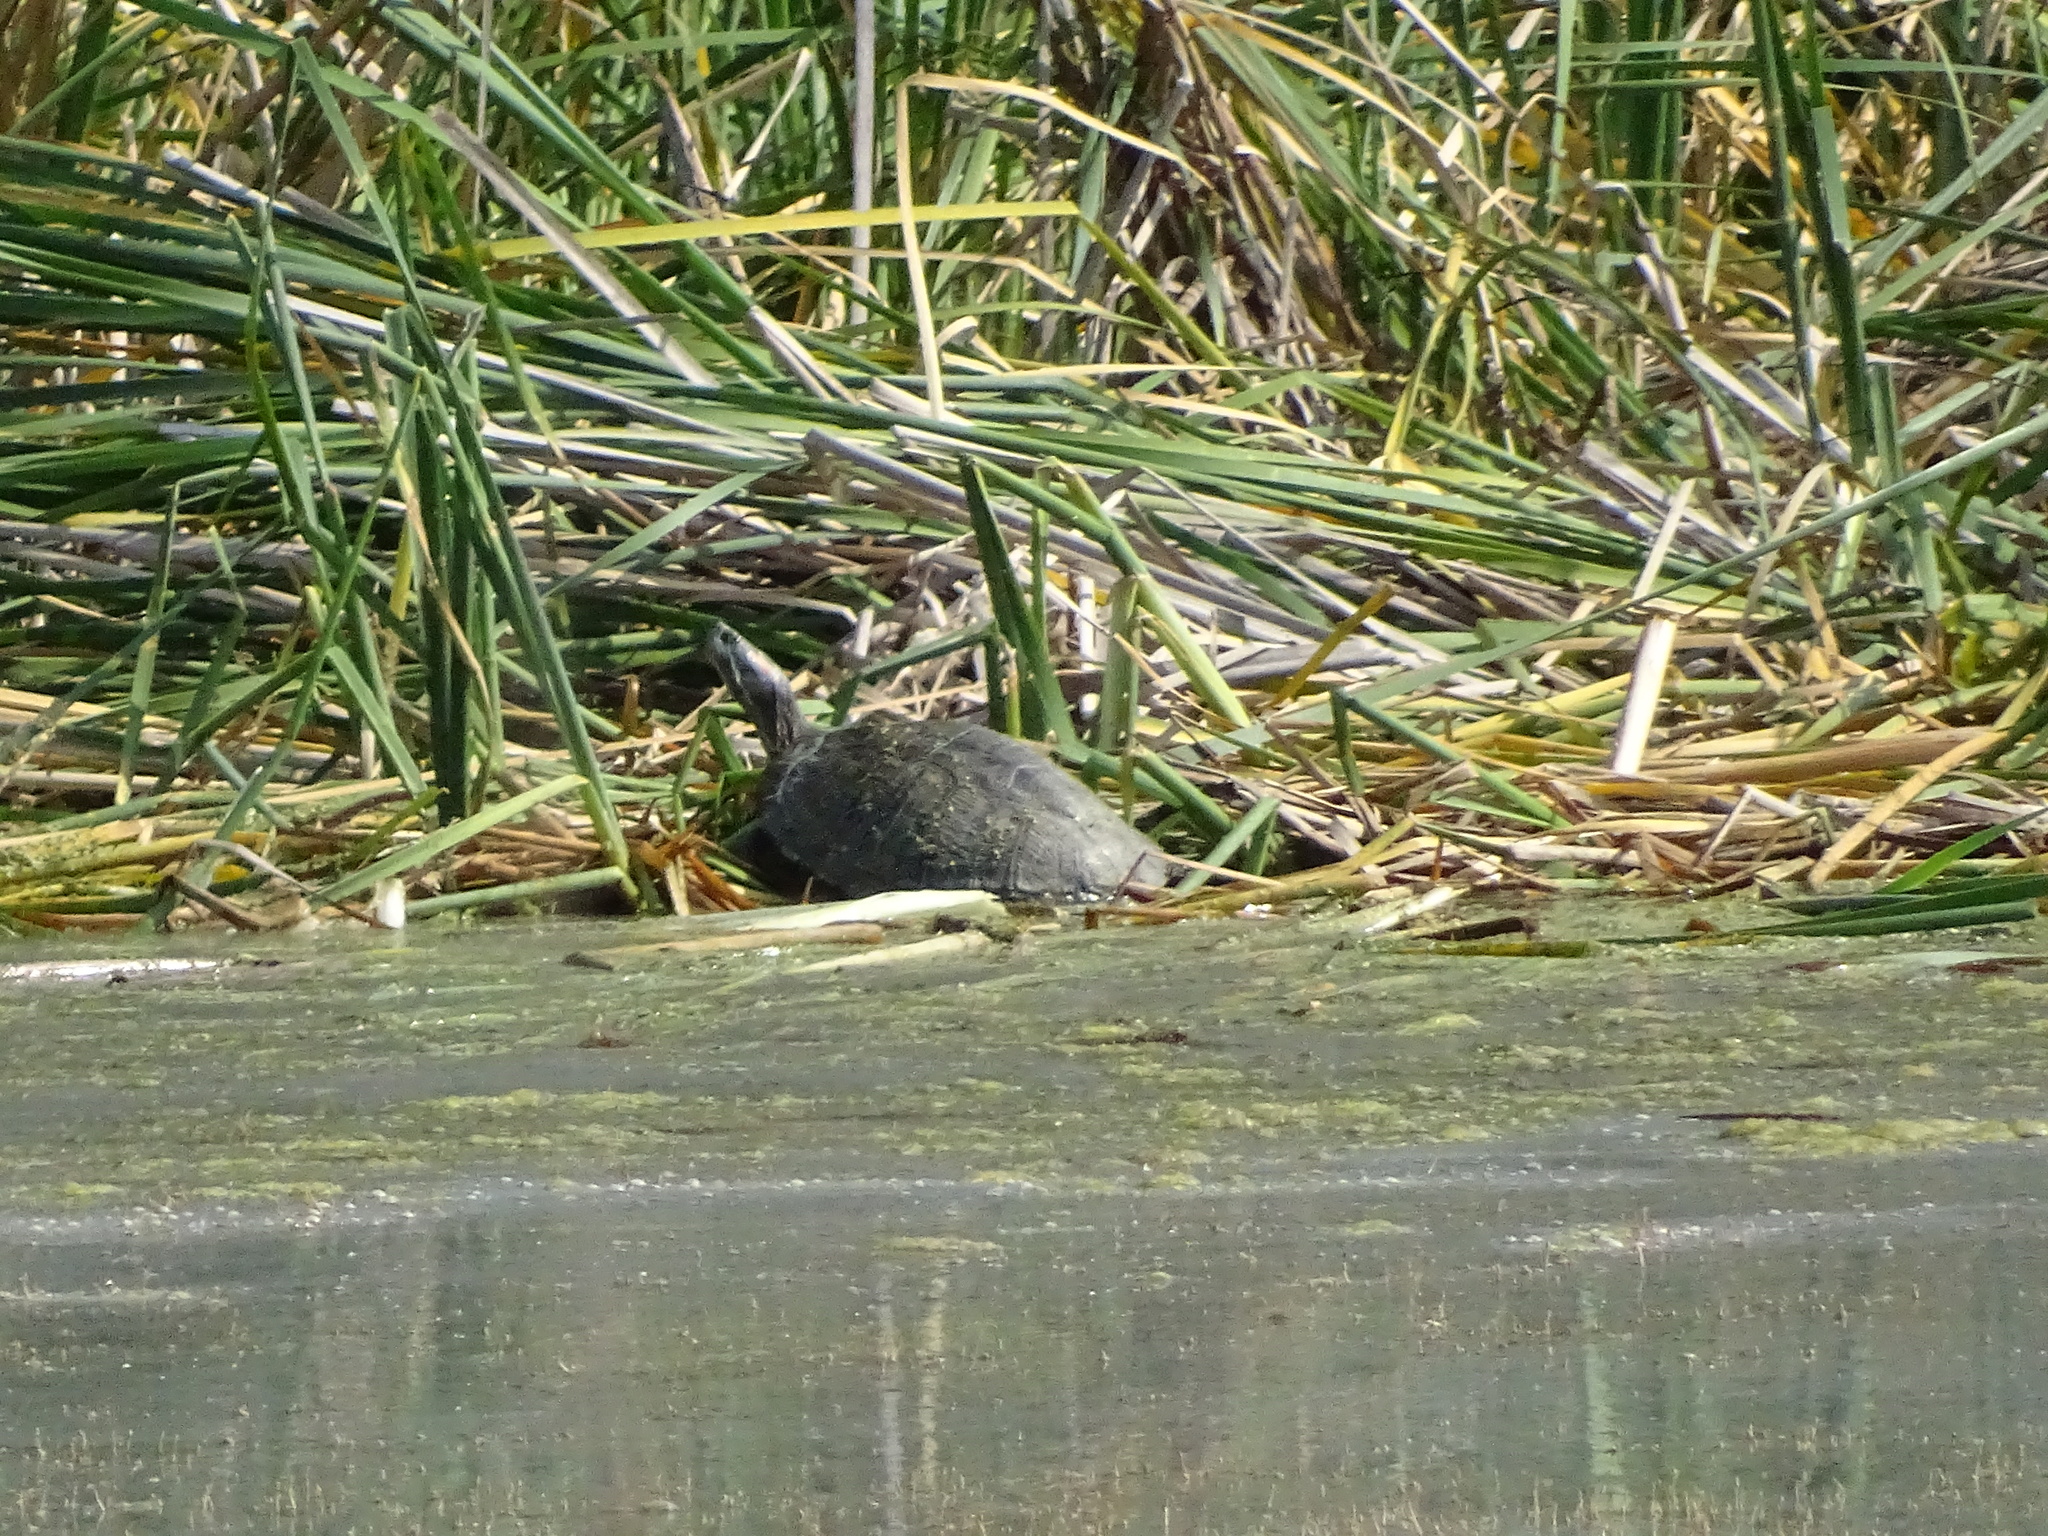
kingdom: Animalia
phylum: Chordata
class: Testudines
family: Emydidae
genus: Trachemys
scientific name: Trachemys scripta
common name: Slider
